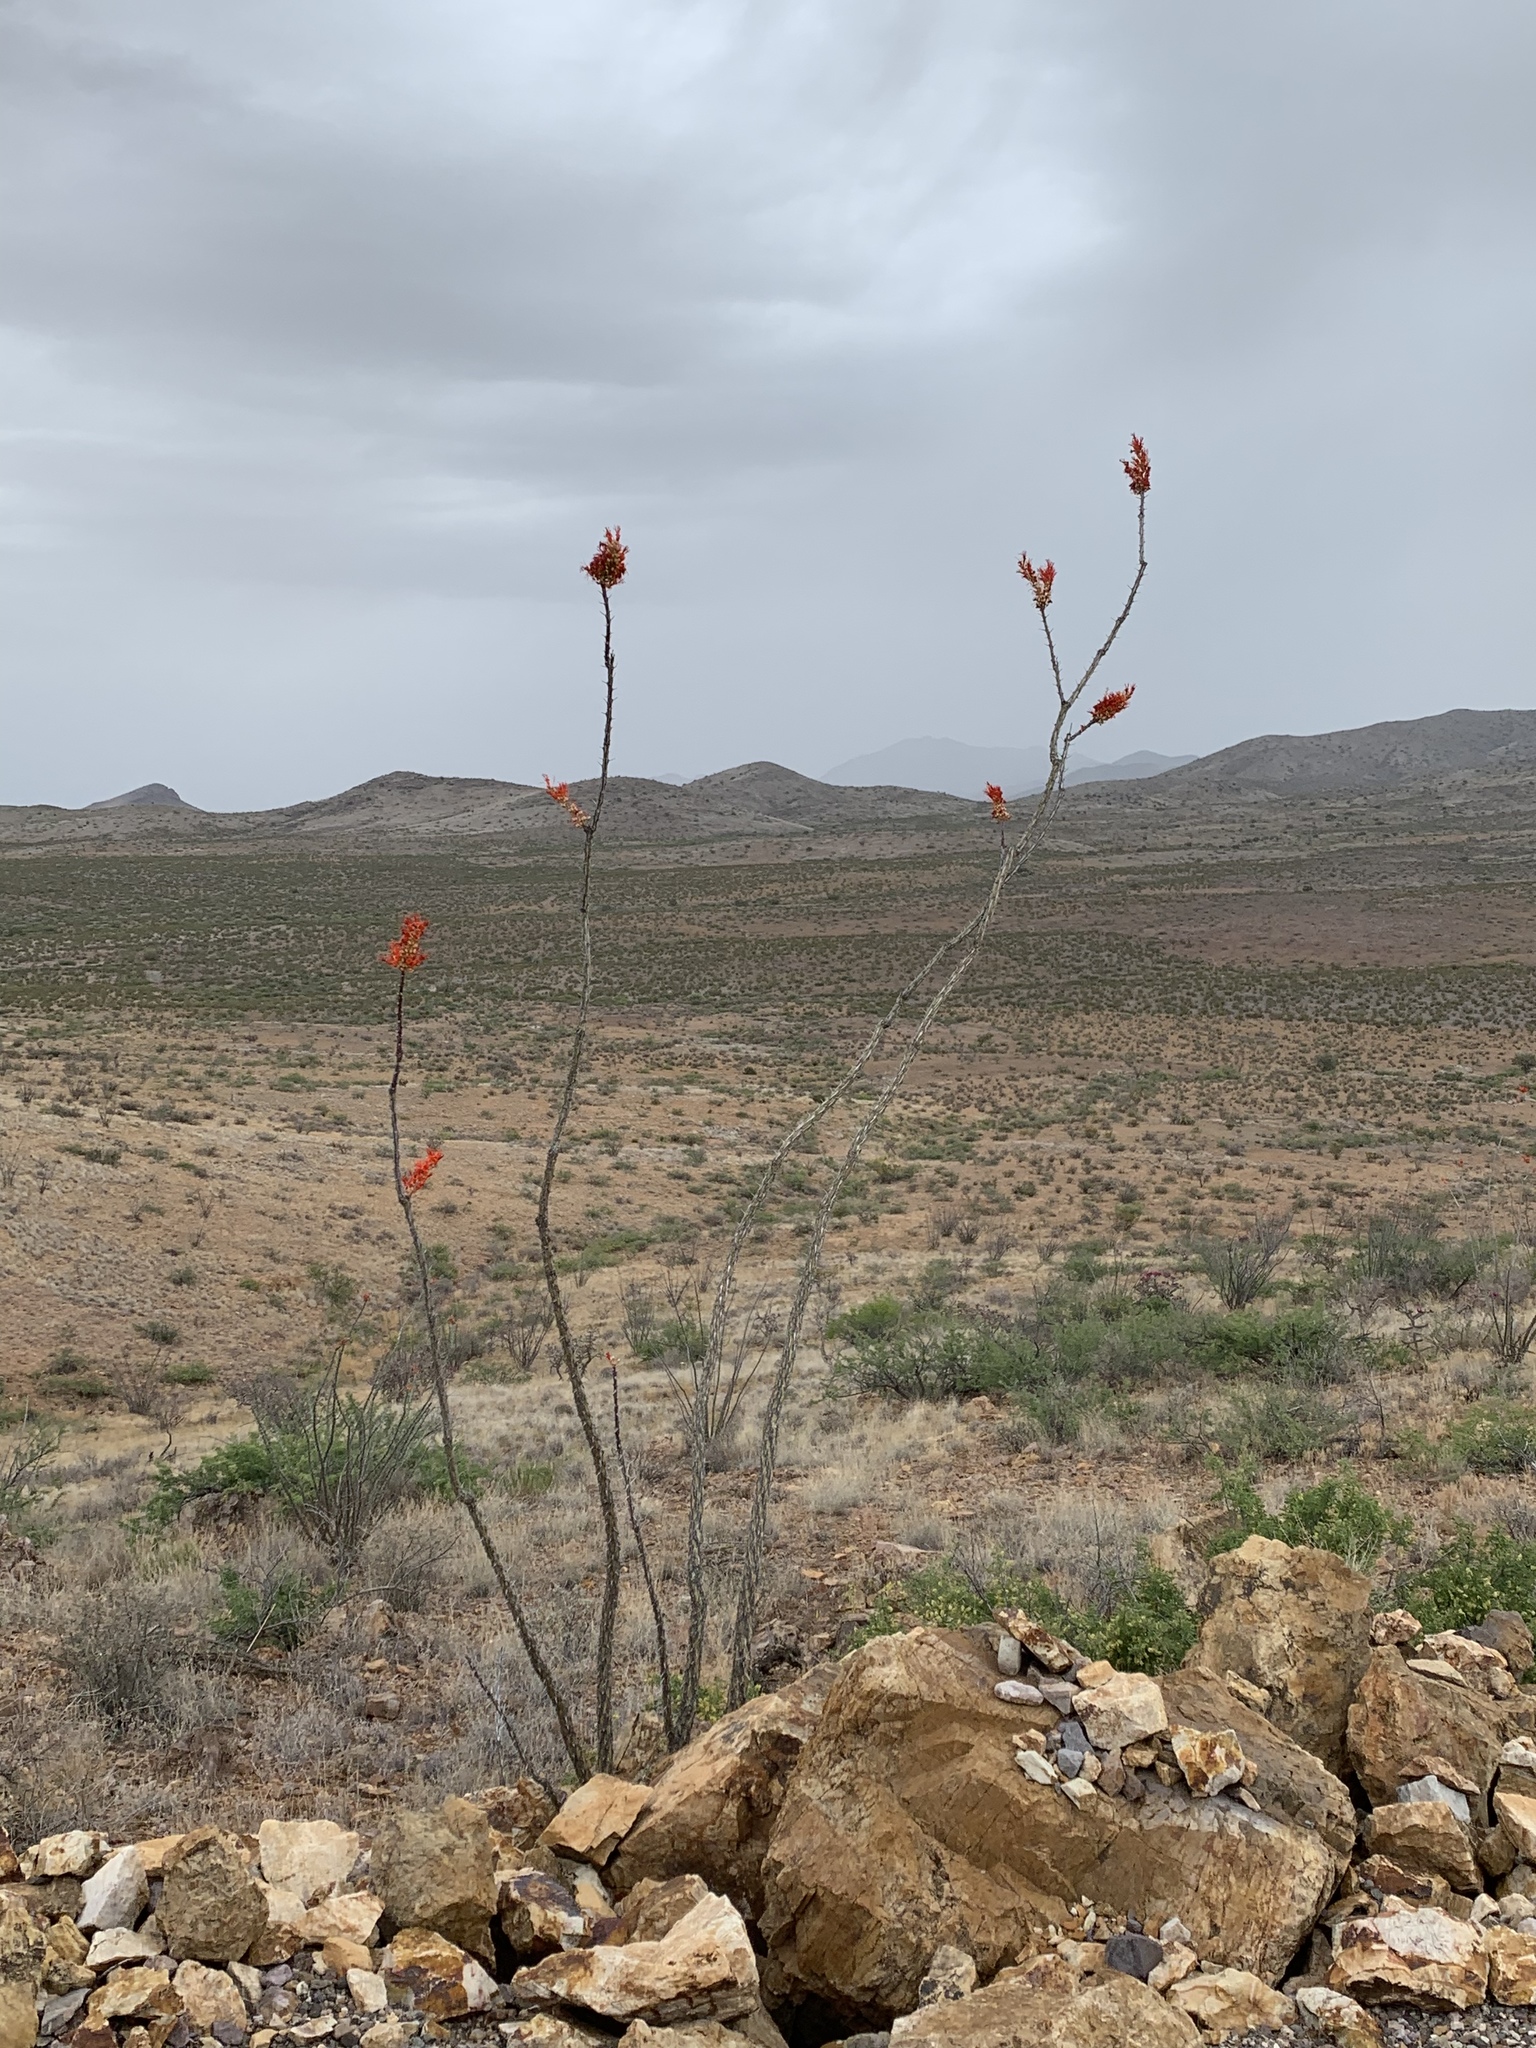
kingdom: Plantae
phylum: Tracheophyta
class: Magnoliopsida
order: Ericales
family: Fouquieriaceae
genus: Fouquieria
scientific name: Fouquieria splendens
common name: Vine-cactus
